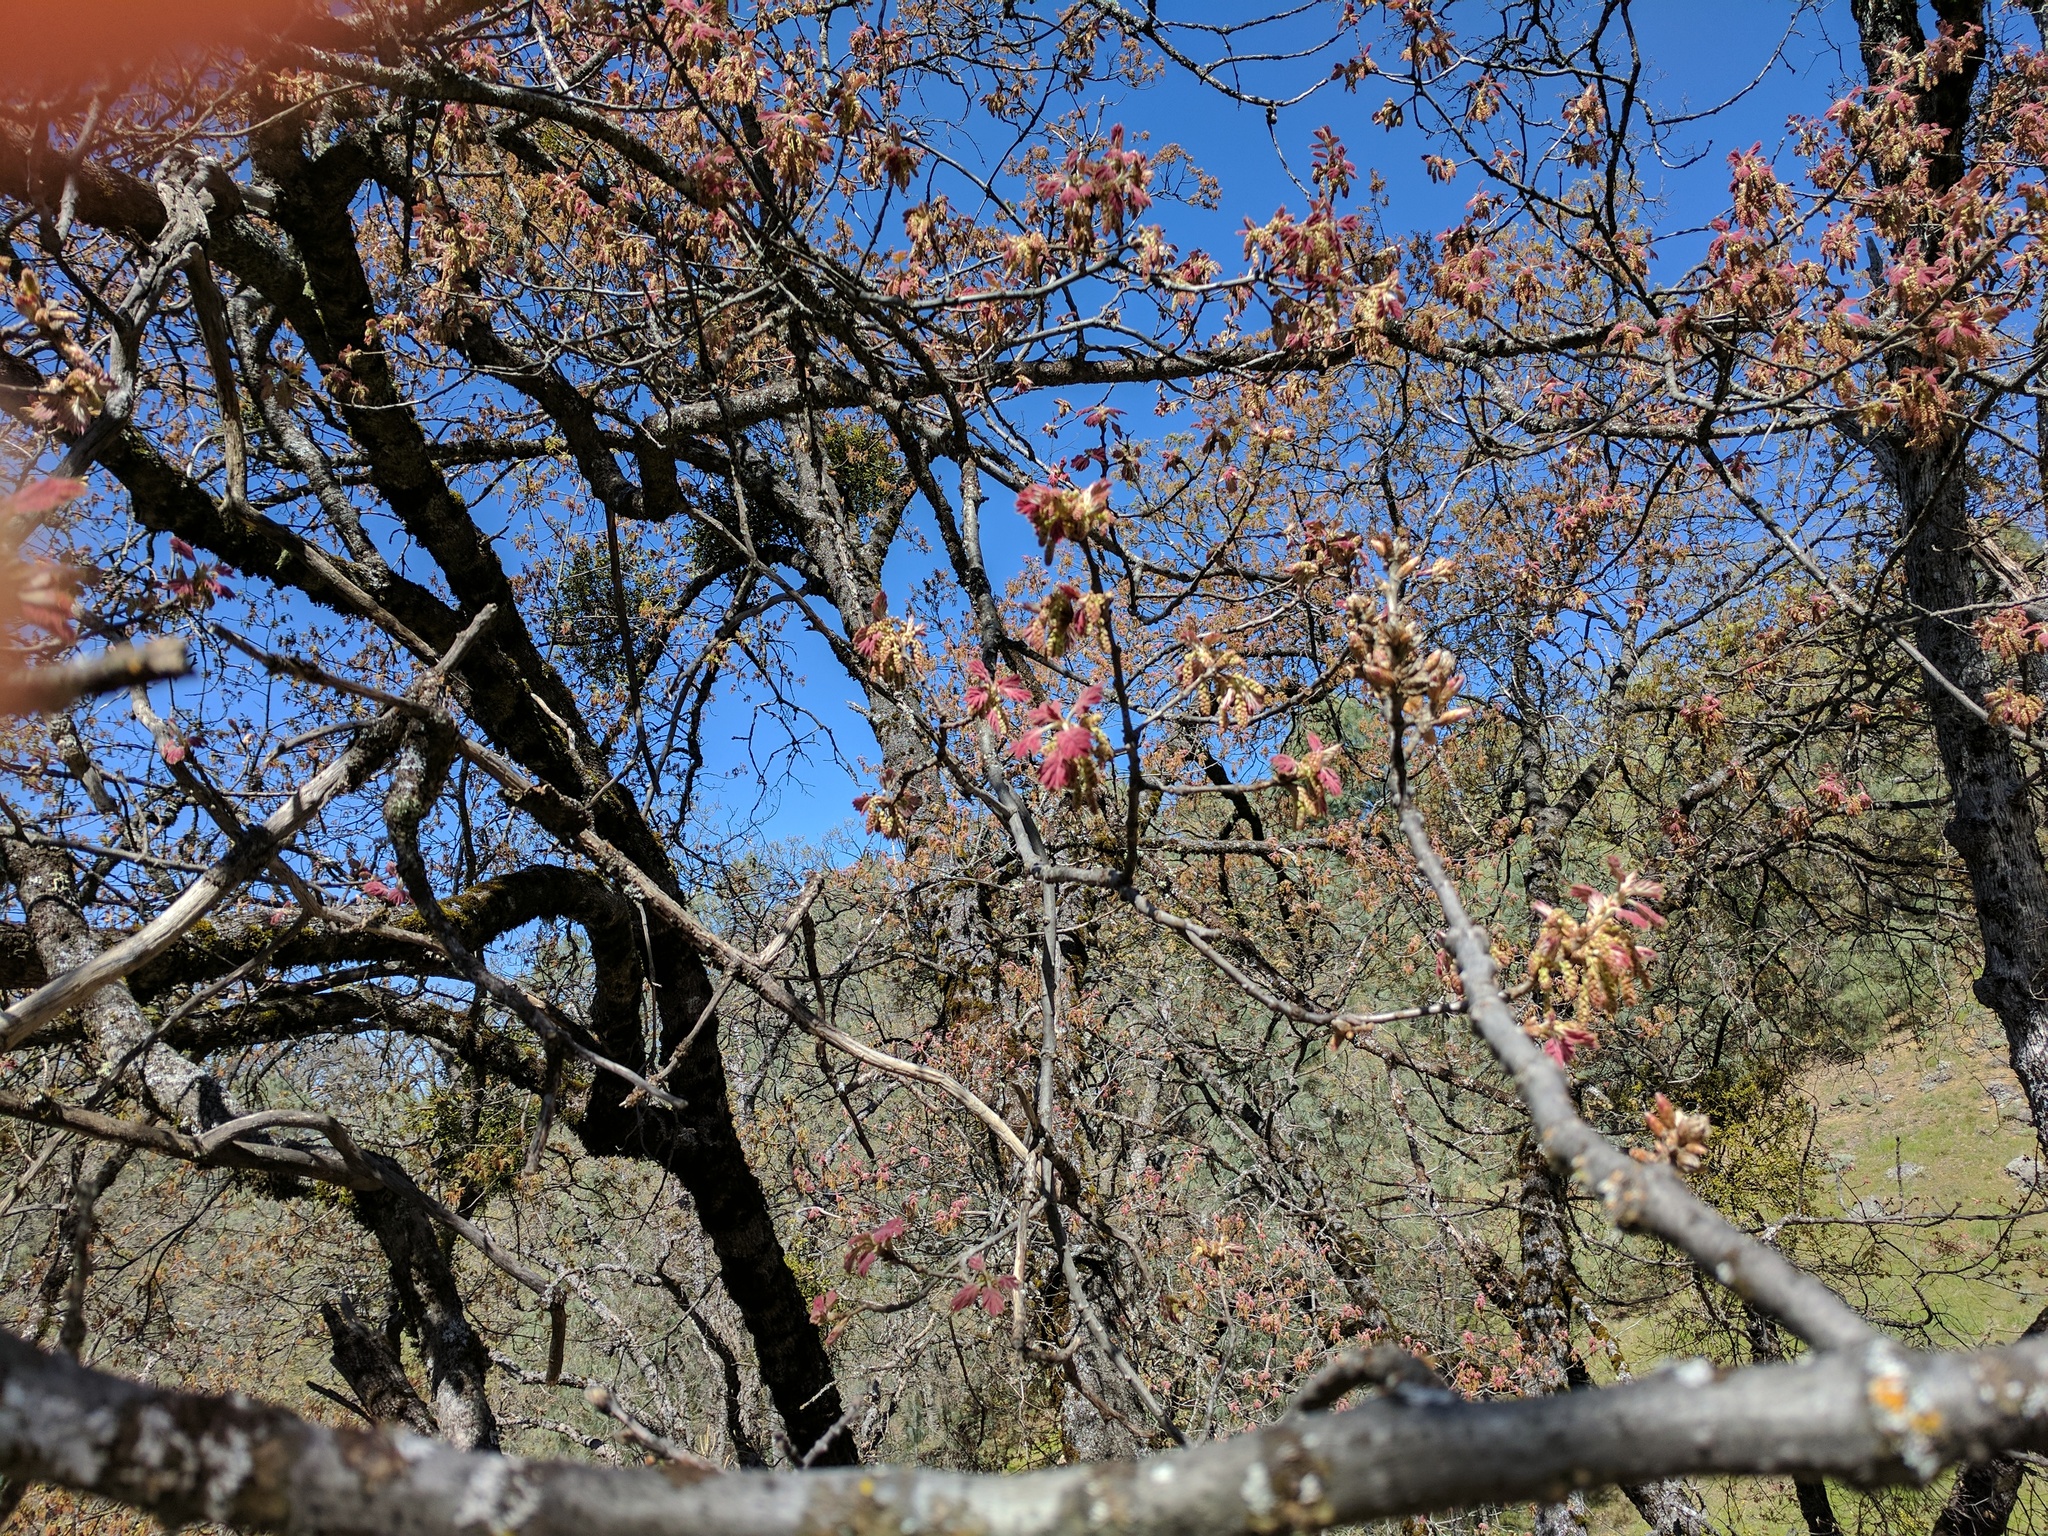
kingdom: Plantae
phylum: Tracheophyta
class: Magnoliopsida
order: Fagales
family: Fagaceae
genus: Quercus
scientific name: Quercus kelloggii
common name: California black oak
